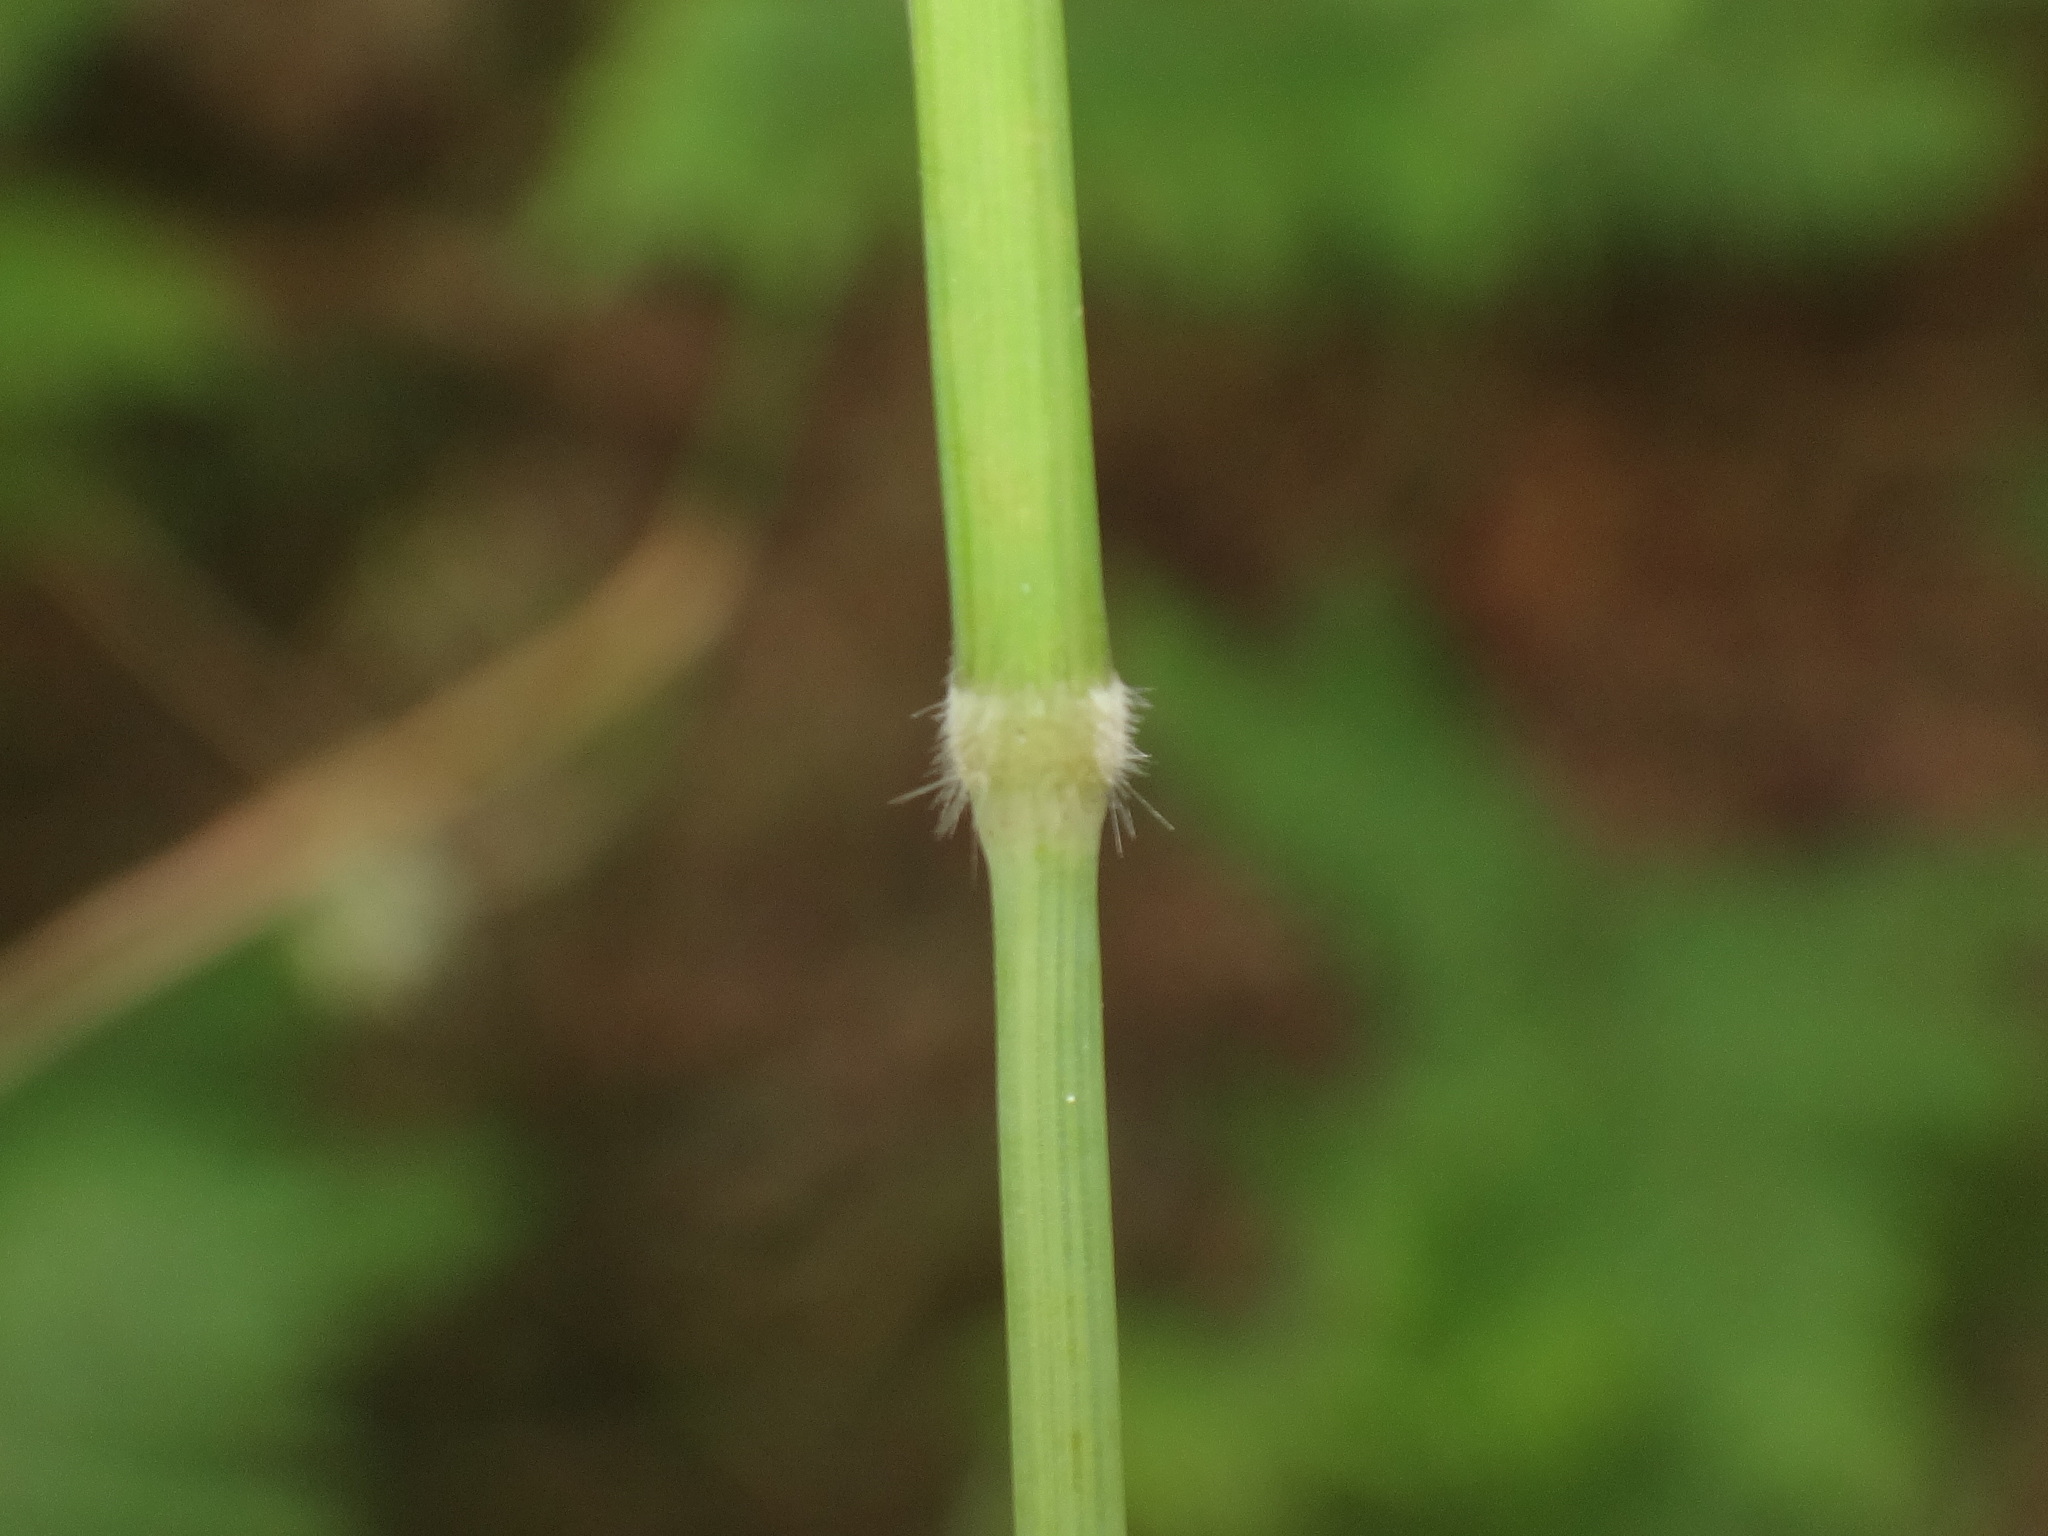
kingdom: Plantae
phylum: Tracheophyta
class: Liliopsida
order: Poales
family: Poaceae
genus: Holcus
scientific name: Holcus mollis
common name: Creeping velvetgrass
